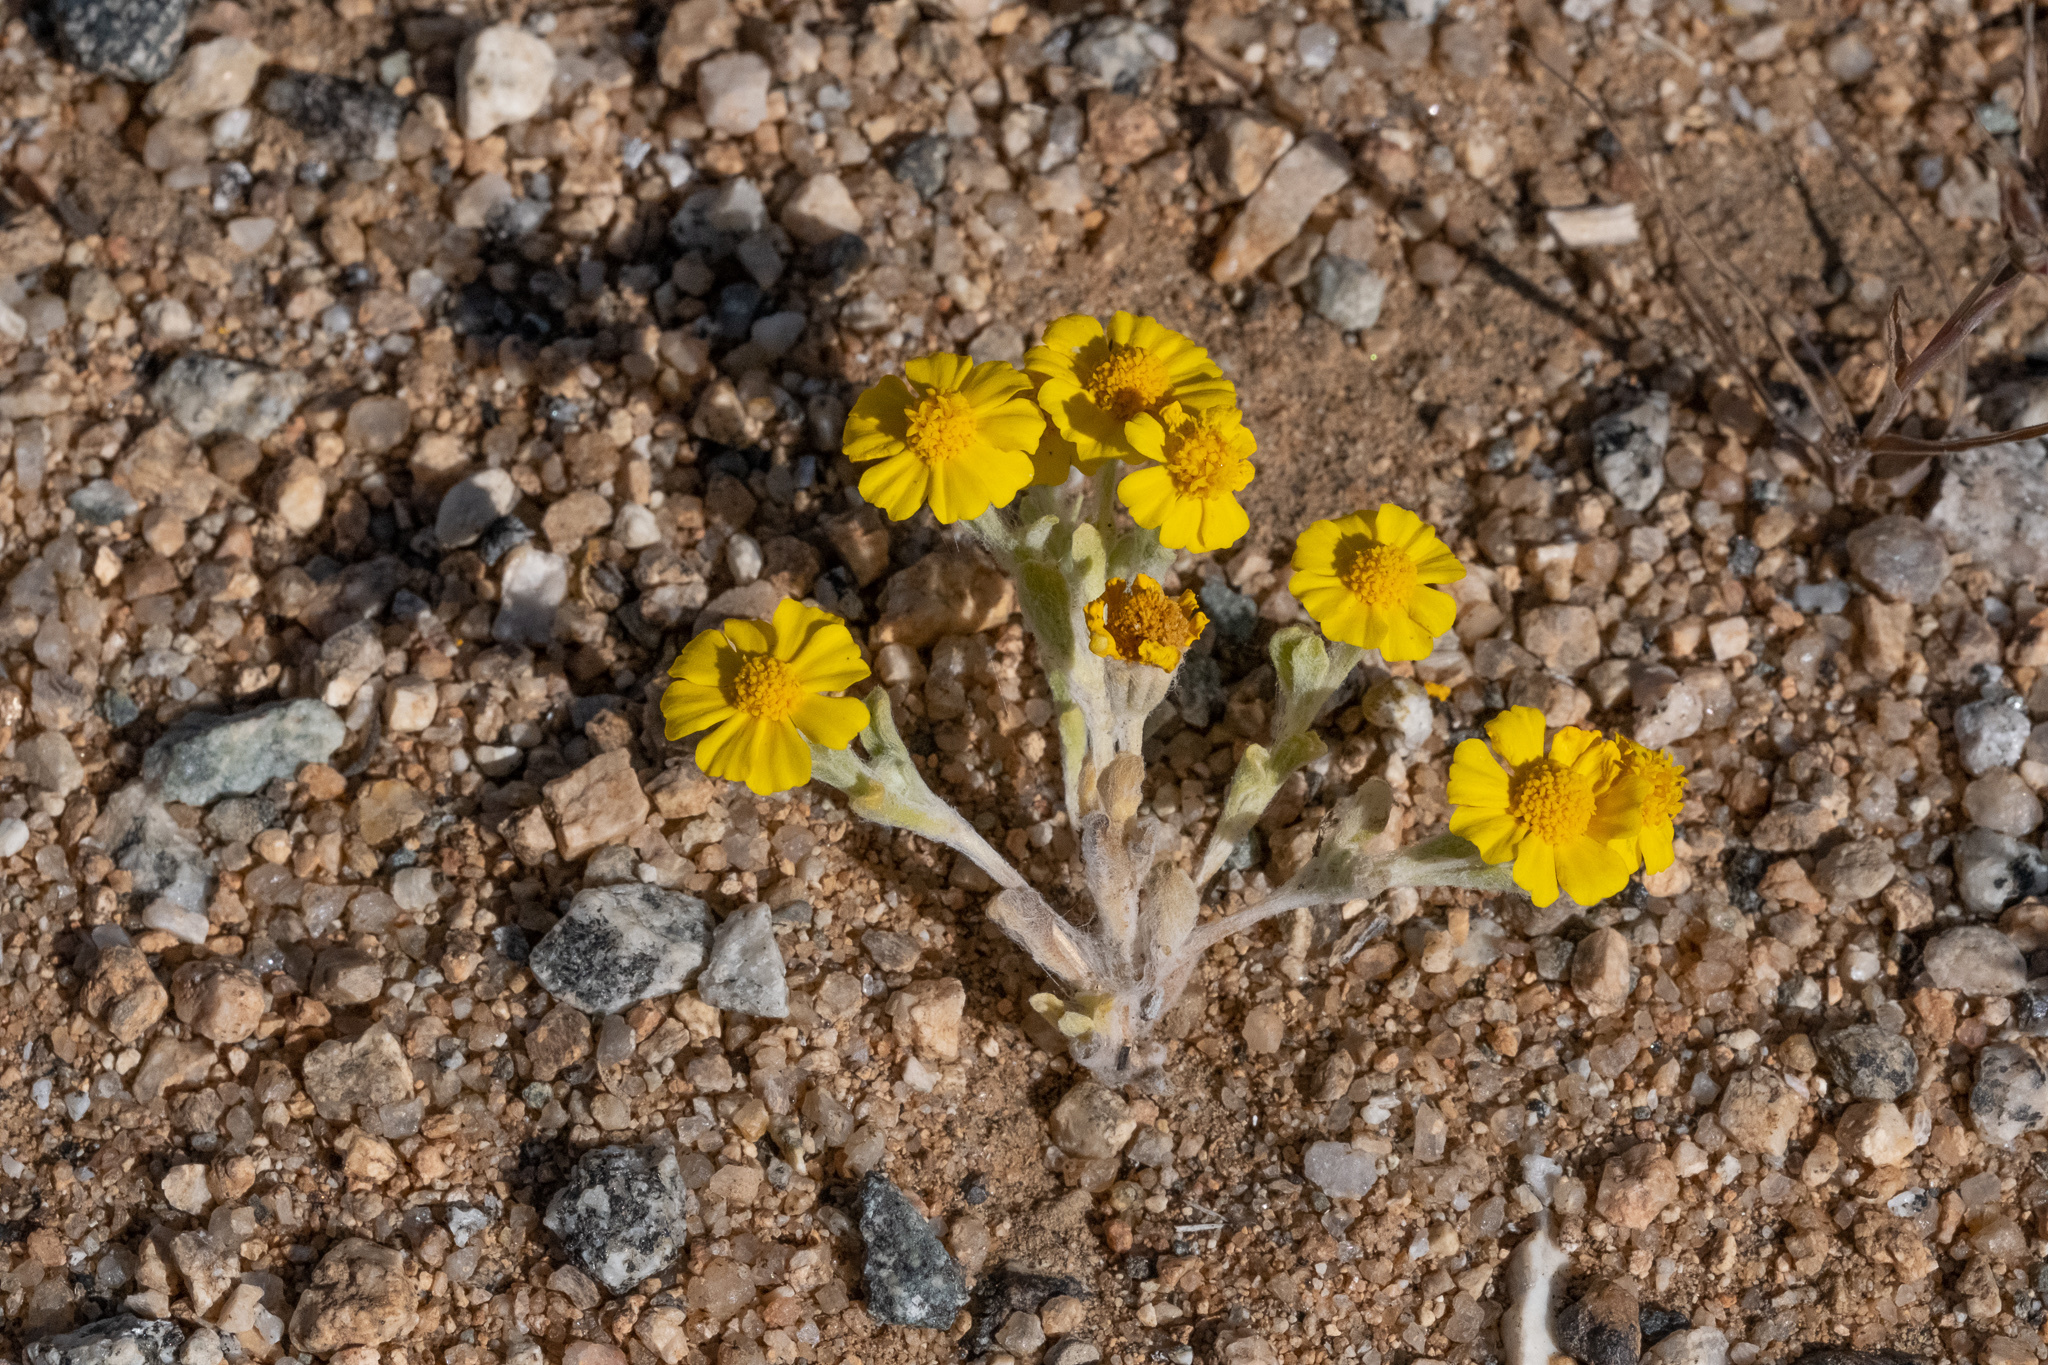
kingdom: Plantae
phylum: Tracheophyta
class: Magnoliopsida
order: Asterales
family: Asteraceae
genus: Eriophyllum
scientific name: Eriophyllum wallacei
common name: Wallace's woolly daisy
